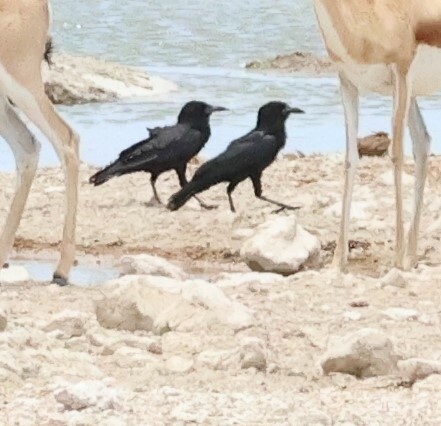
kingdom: Animalia
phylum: Chordata
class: Aves
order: Passeriformes
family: Corvidae
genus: Corvus
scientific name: Corvus capensis
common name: Cape crow
